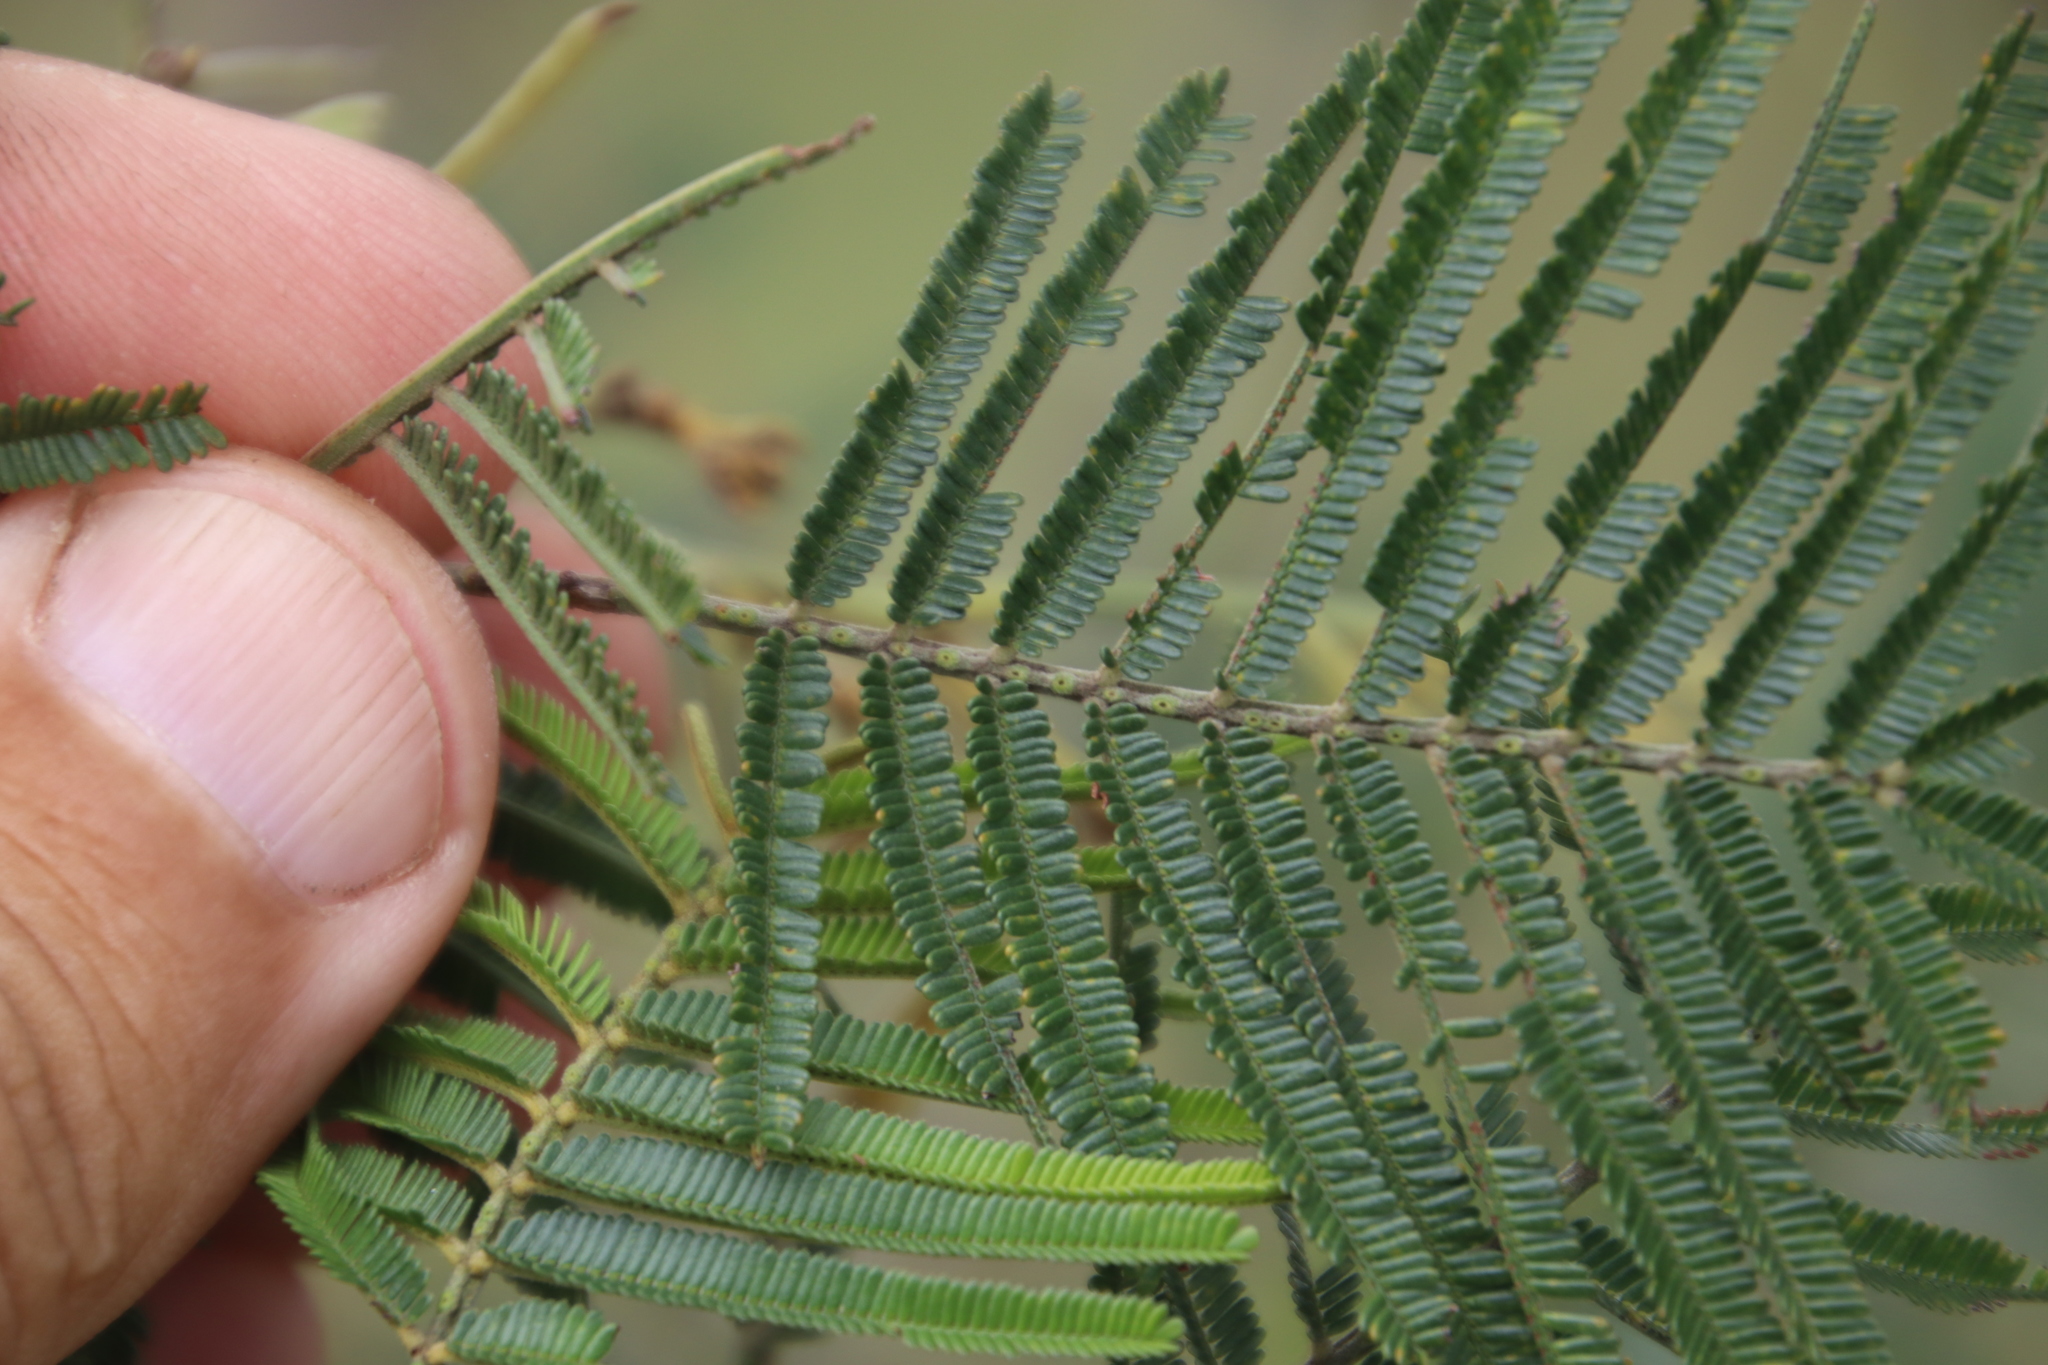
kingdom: Plantae
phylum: Tracheophyta
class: Magnoliopsida
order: Fabales
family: Fabaceae
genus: Acacia
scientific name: Acacia mearnsii
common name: Black wattle
